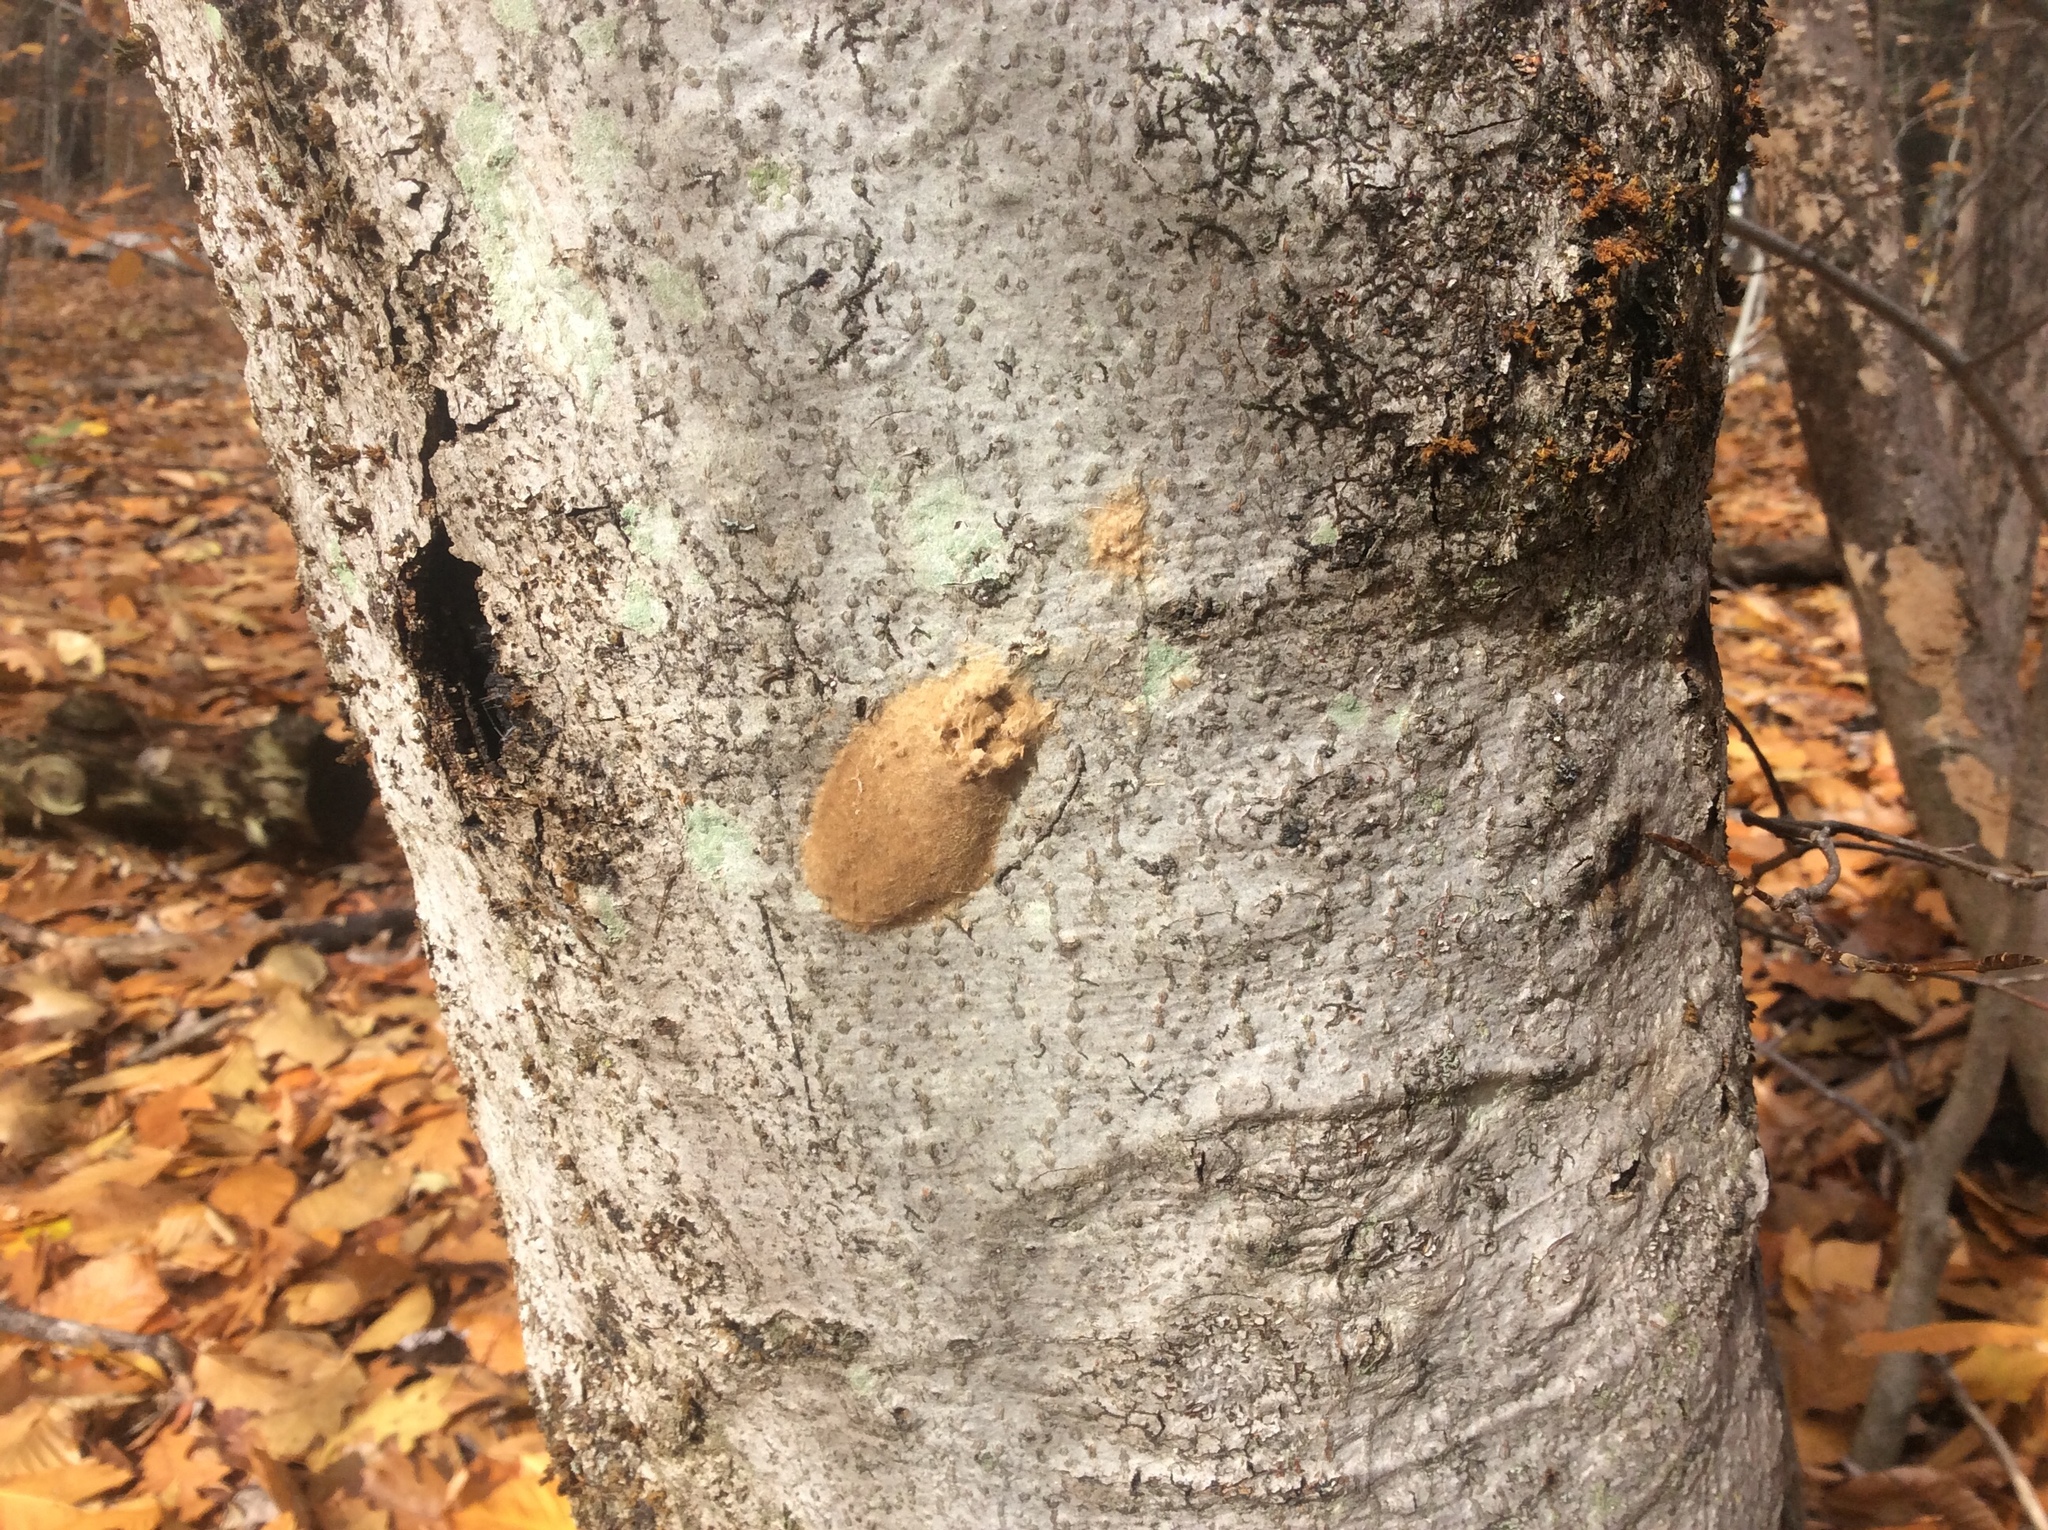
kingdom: Animalia
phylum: Arthropoda
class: Insecta
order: Lepidoptera
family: Erebidae
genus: Lymantria
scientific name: Lymantria dispar
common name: Gypsy moth
